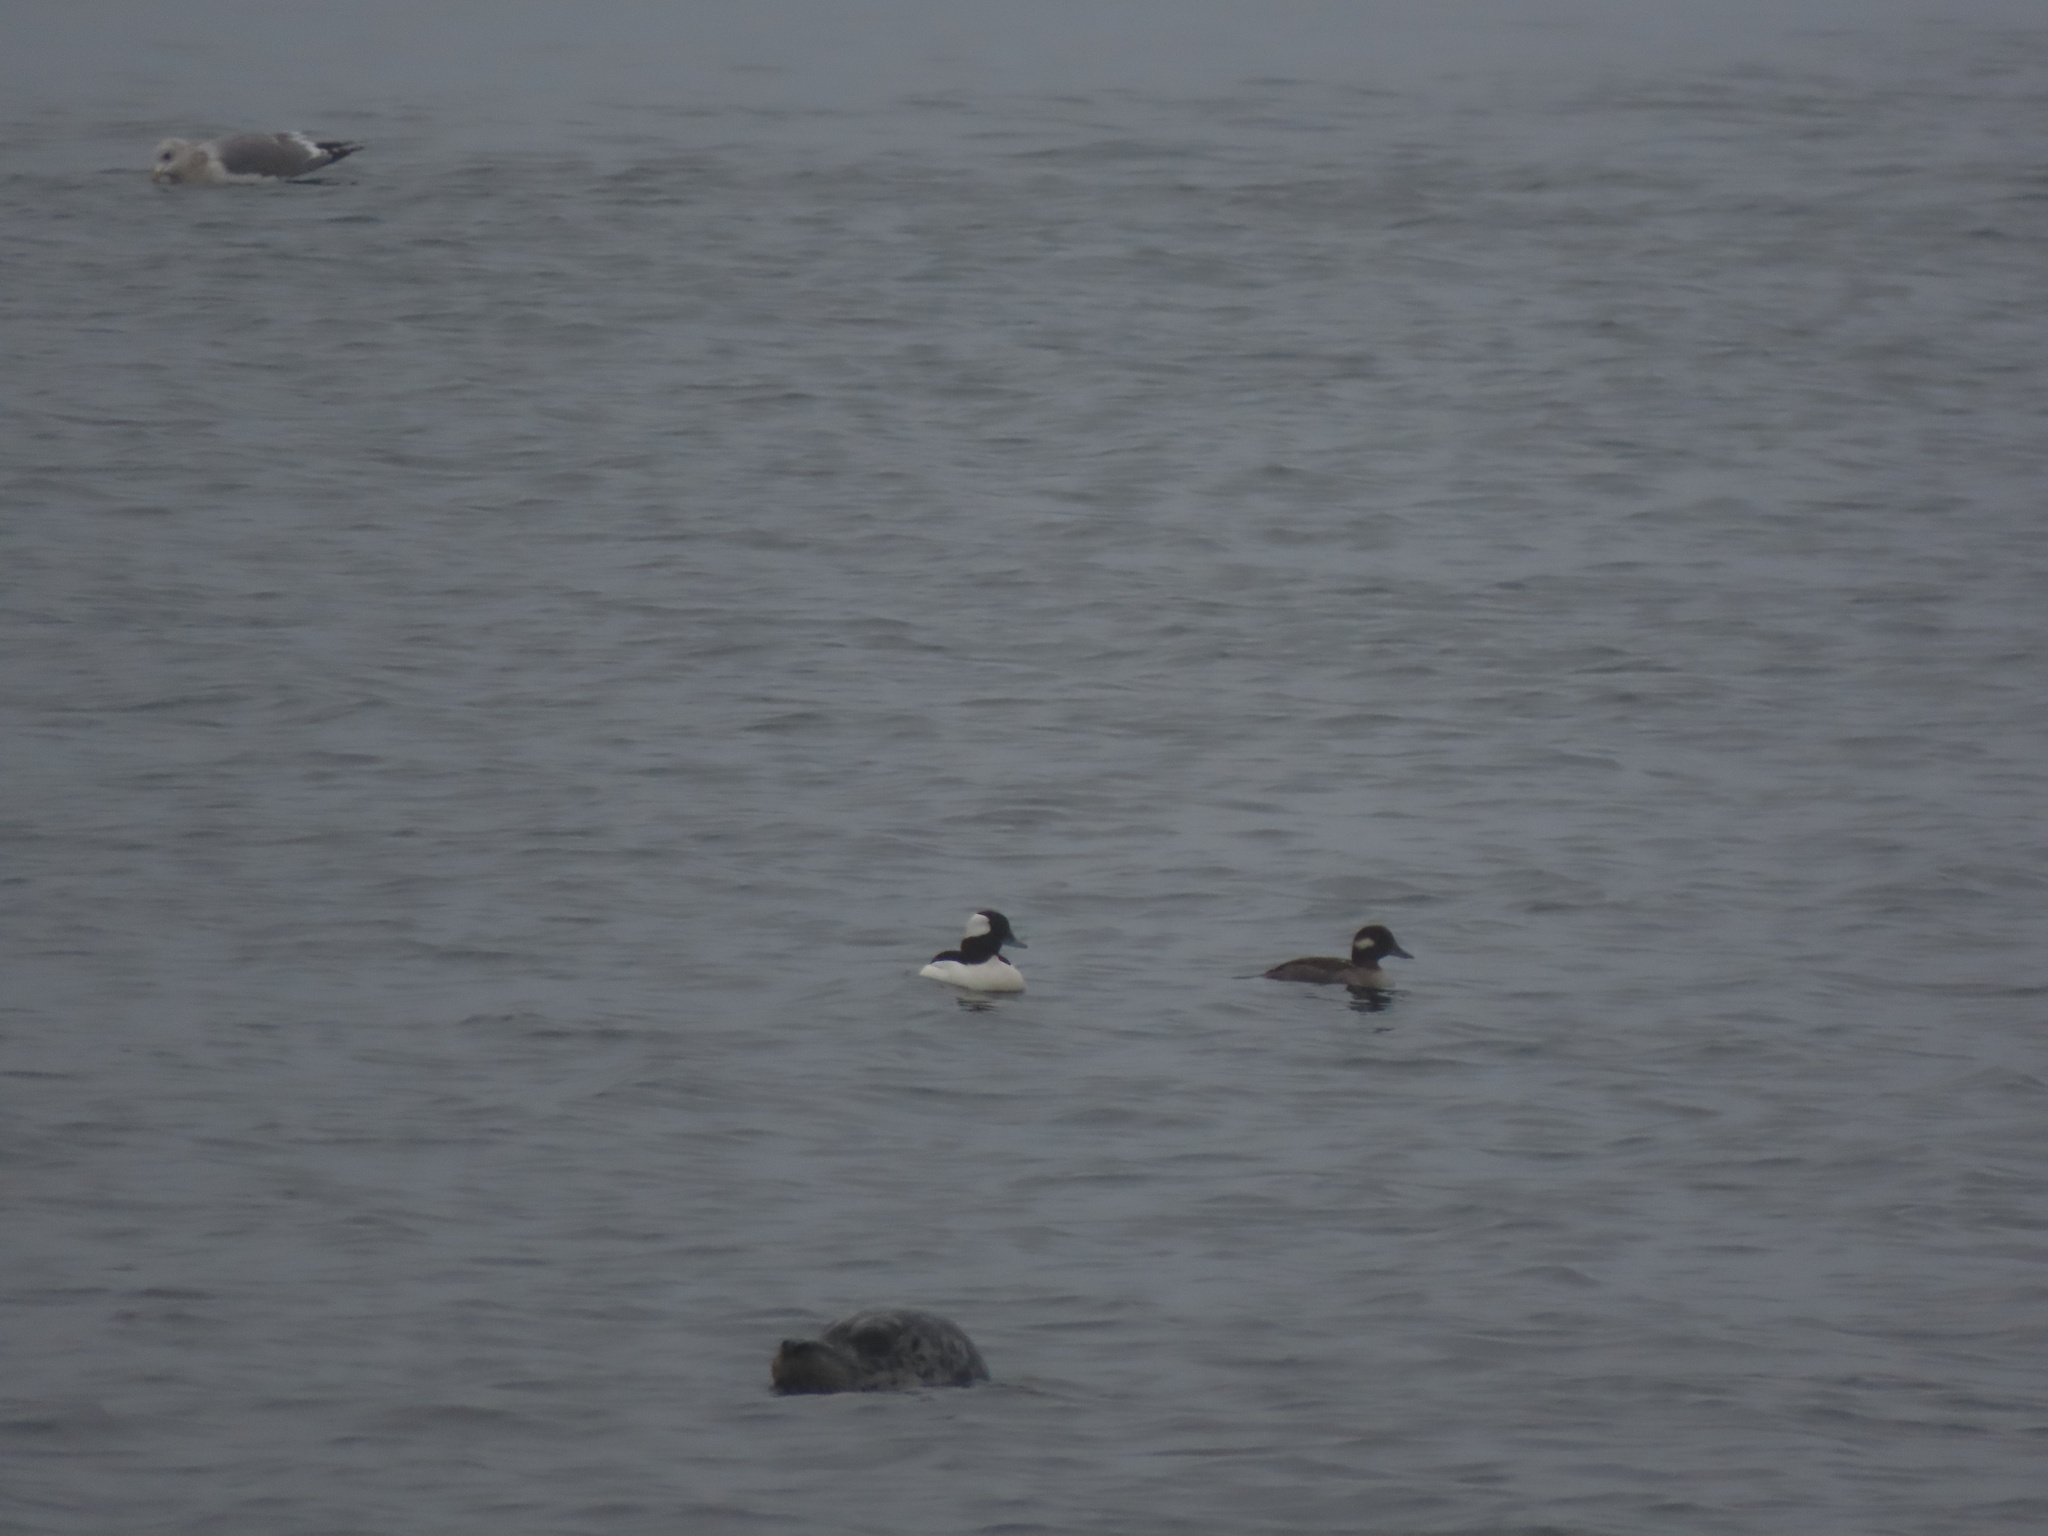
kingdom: Animalia
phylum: Chordata
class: Aves
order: Anseriformes
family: Anatidae
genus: Bucephala
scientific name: Bucephala albeola
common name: Bufflehead
